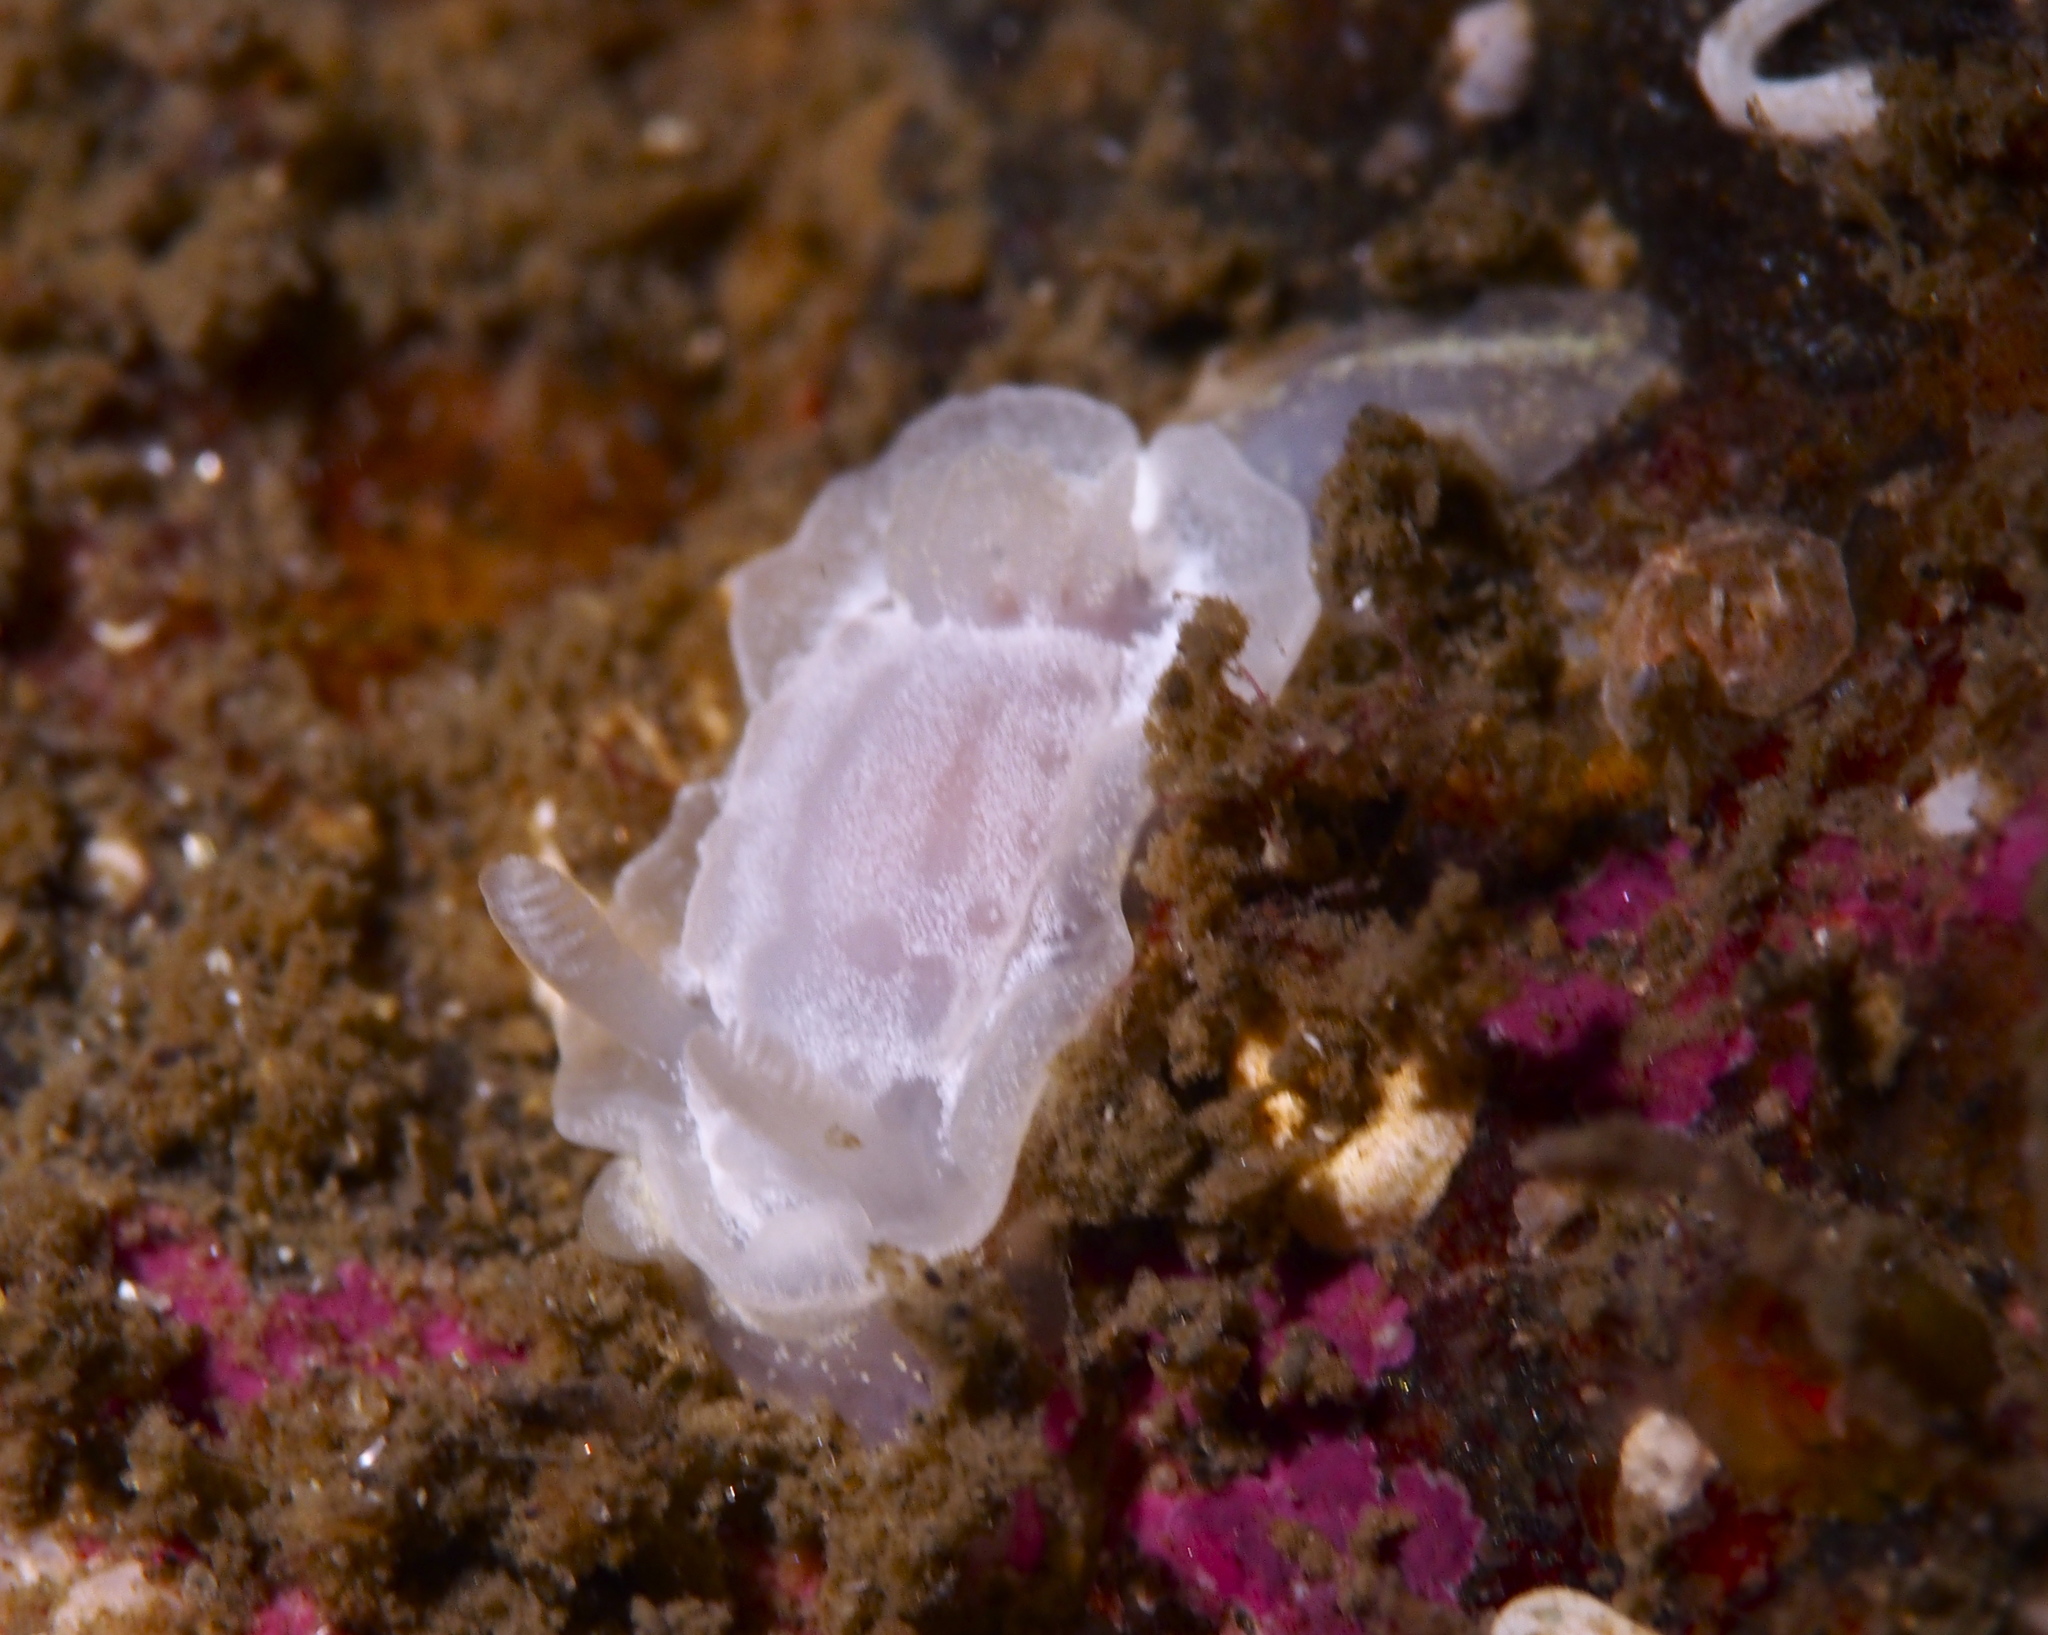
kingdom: Animalia
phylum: Mollusca
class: Gastropoda
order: Nudibranchia
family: Goniodorididae
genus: Okenia
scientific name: Okenia
